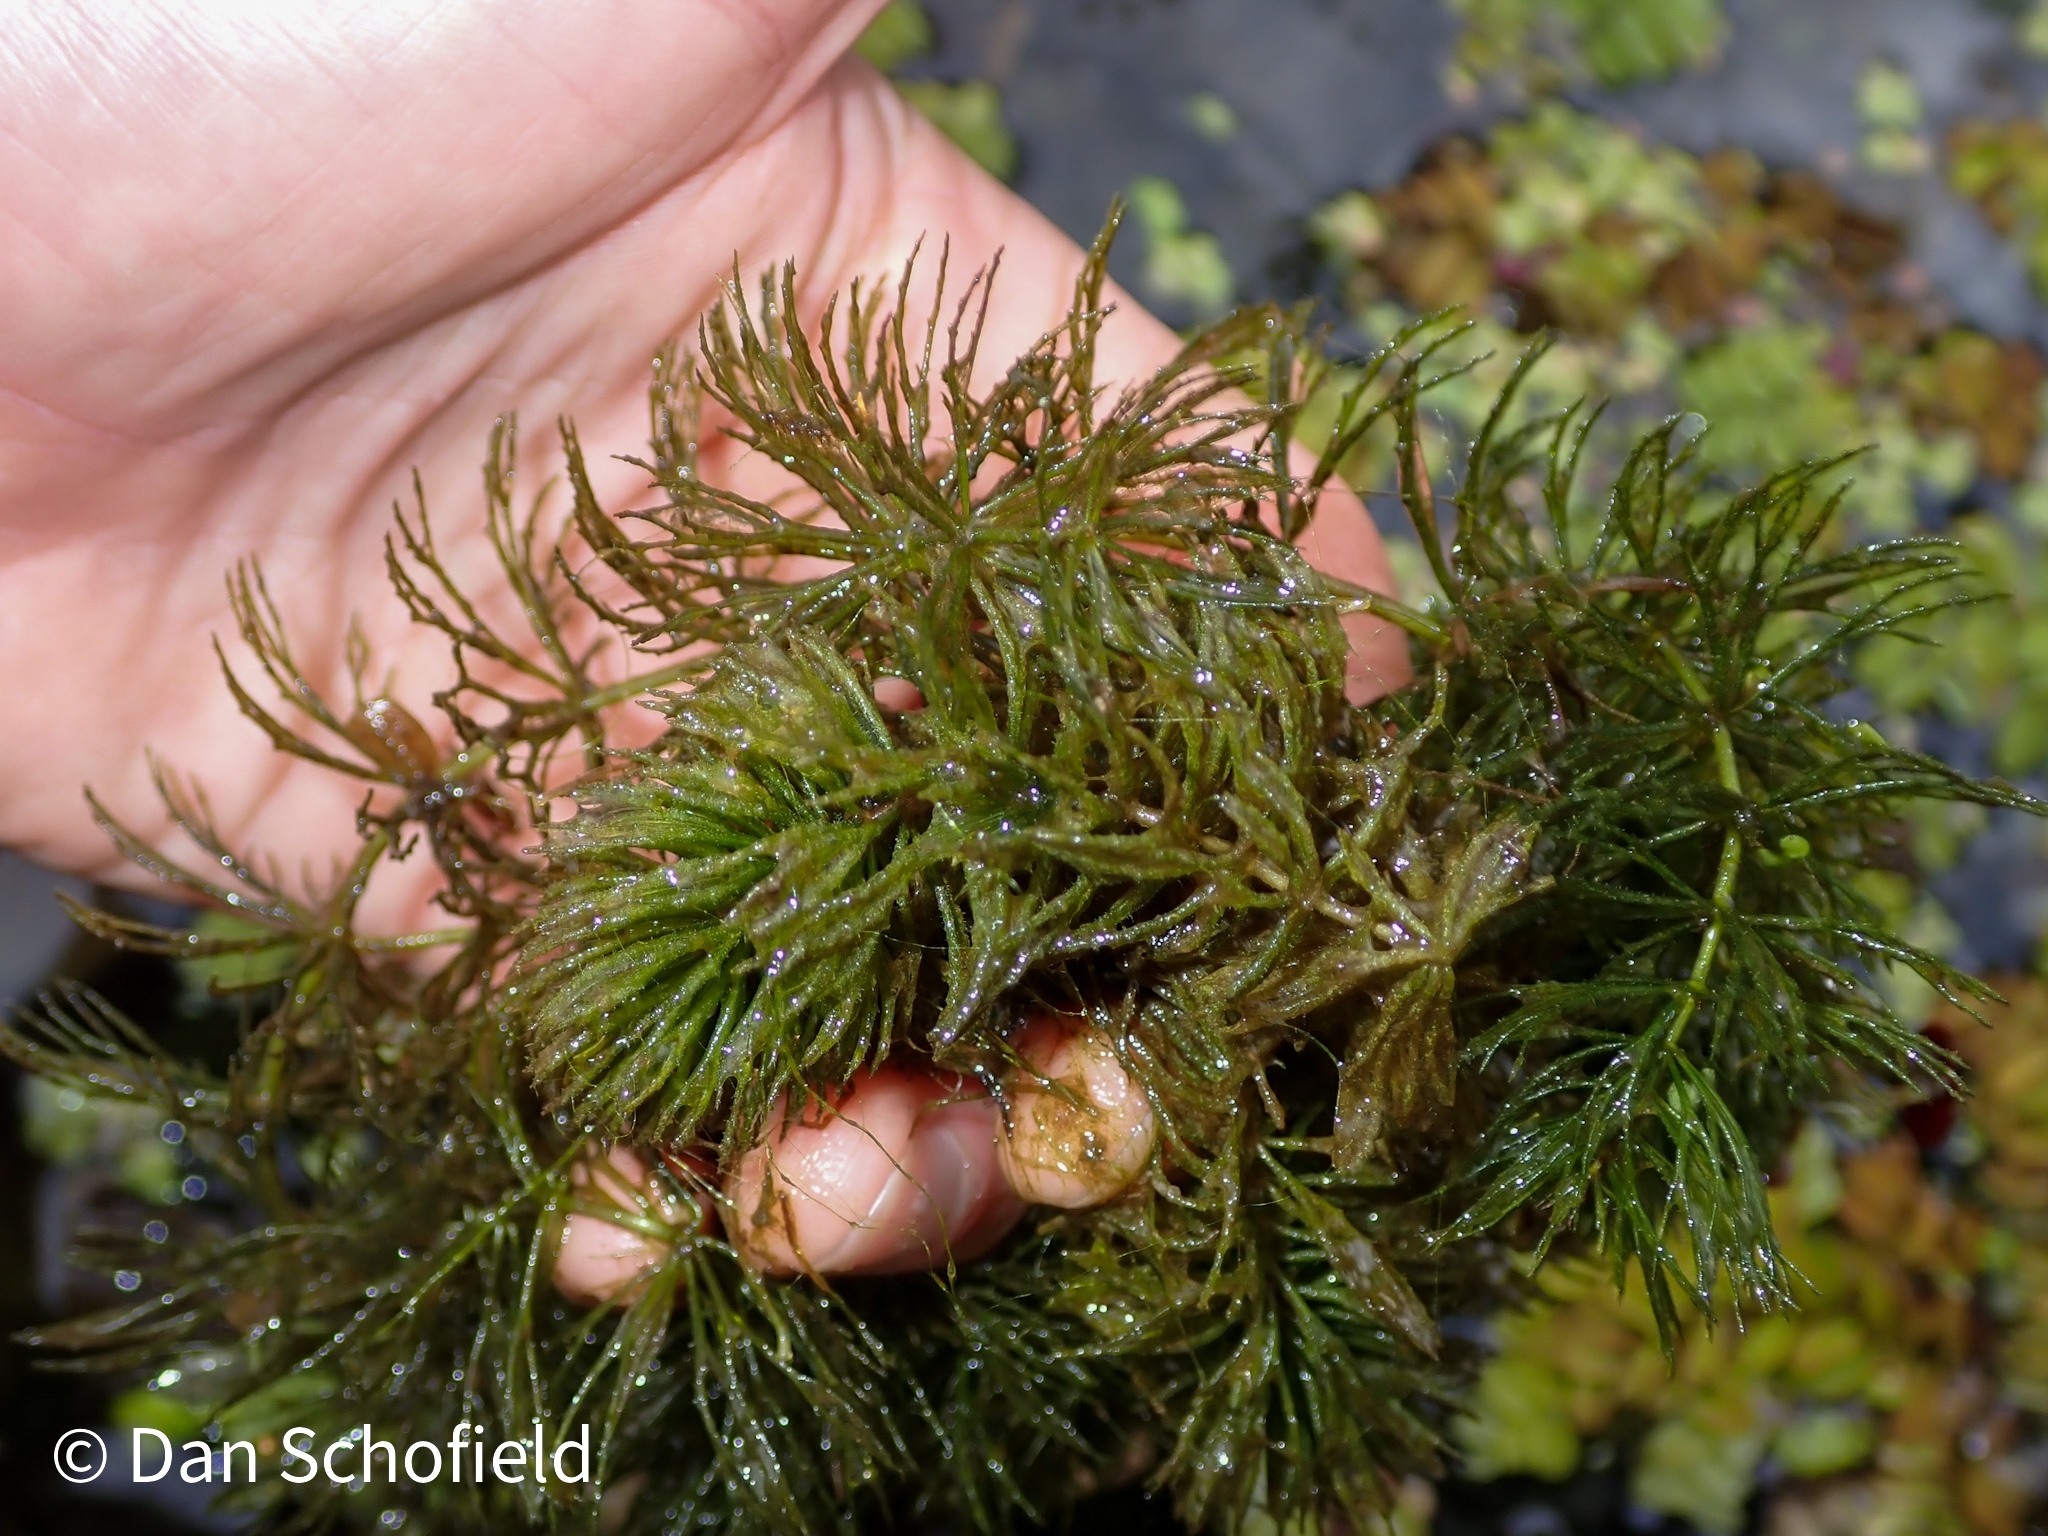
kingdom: Plantae
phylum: Tracheophyta
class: Magnoliopsida
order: Ceratophyllales
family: Ceratophyllaceae
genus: Ceratophyllum
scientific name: Ceratophyllum demersum
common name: Rigid hornwort
